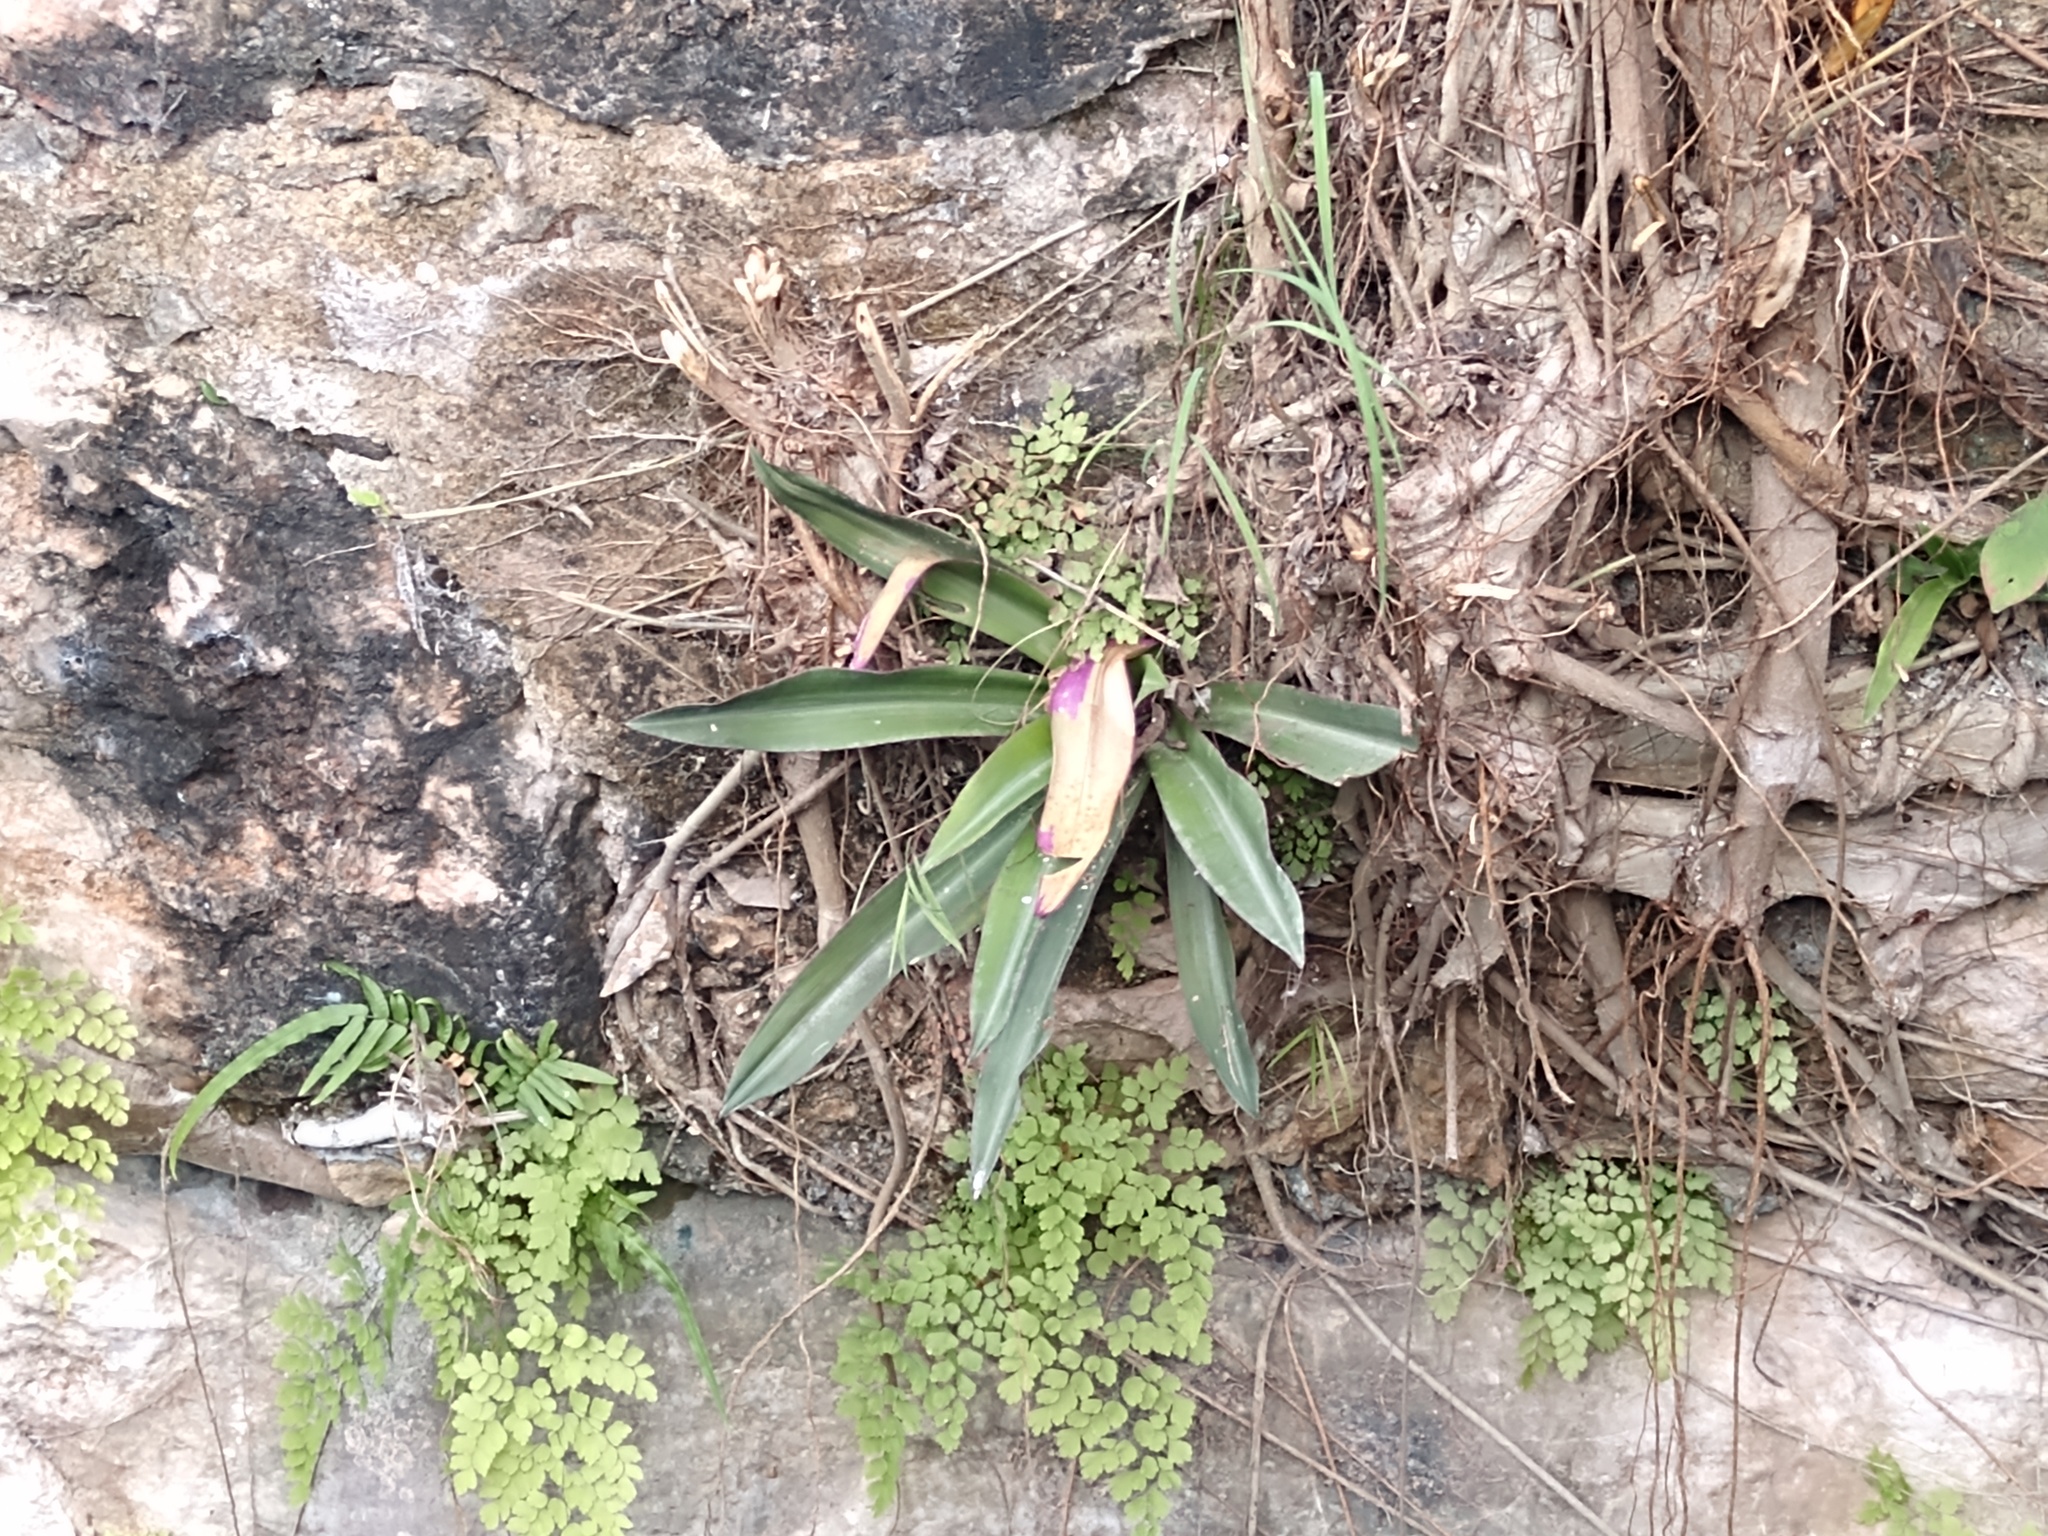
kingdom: Plantae
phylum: Tracheophyta
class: Liliopsida
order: Commelinales
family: Commelinaceae
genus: Tradescantia
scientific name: Tradescantia spathacea
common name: Boatlily
